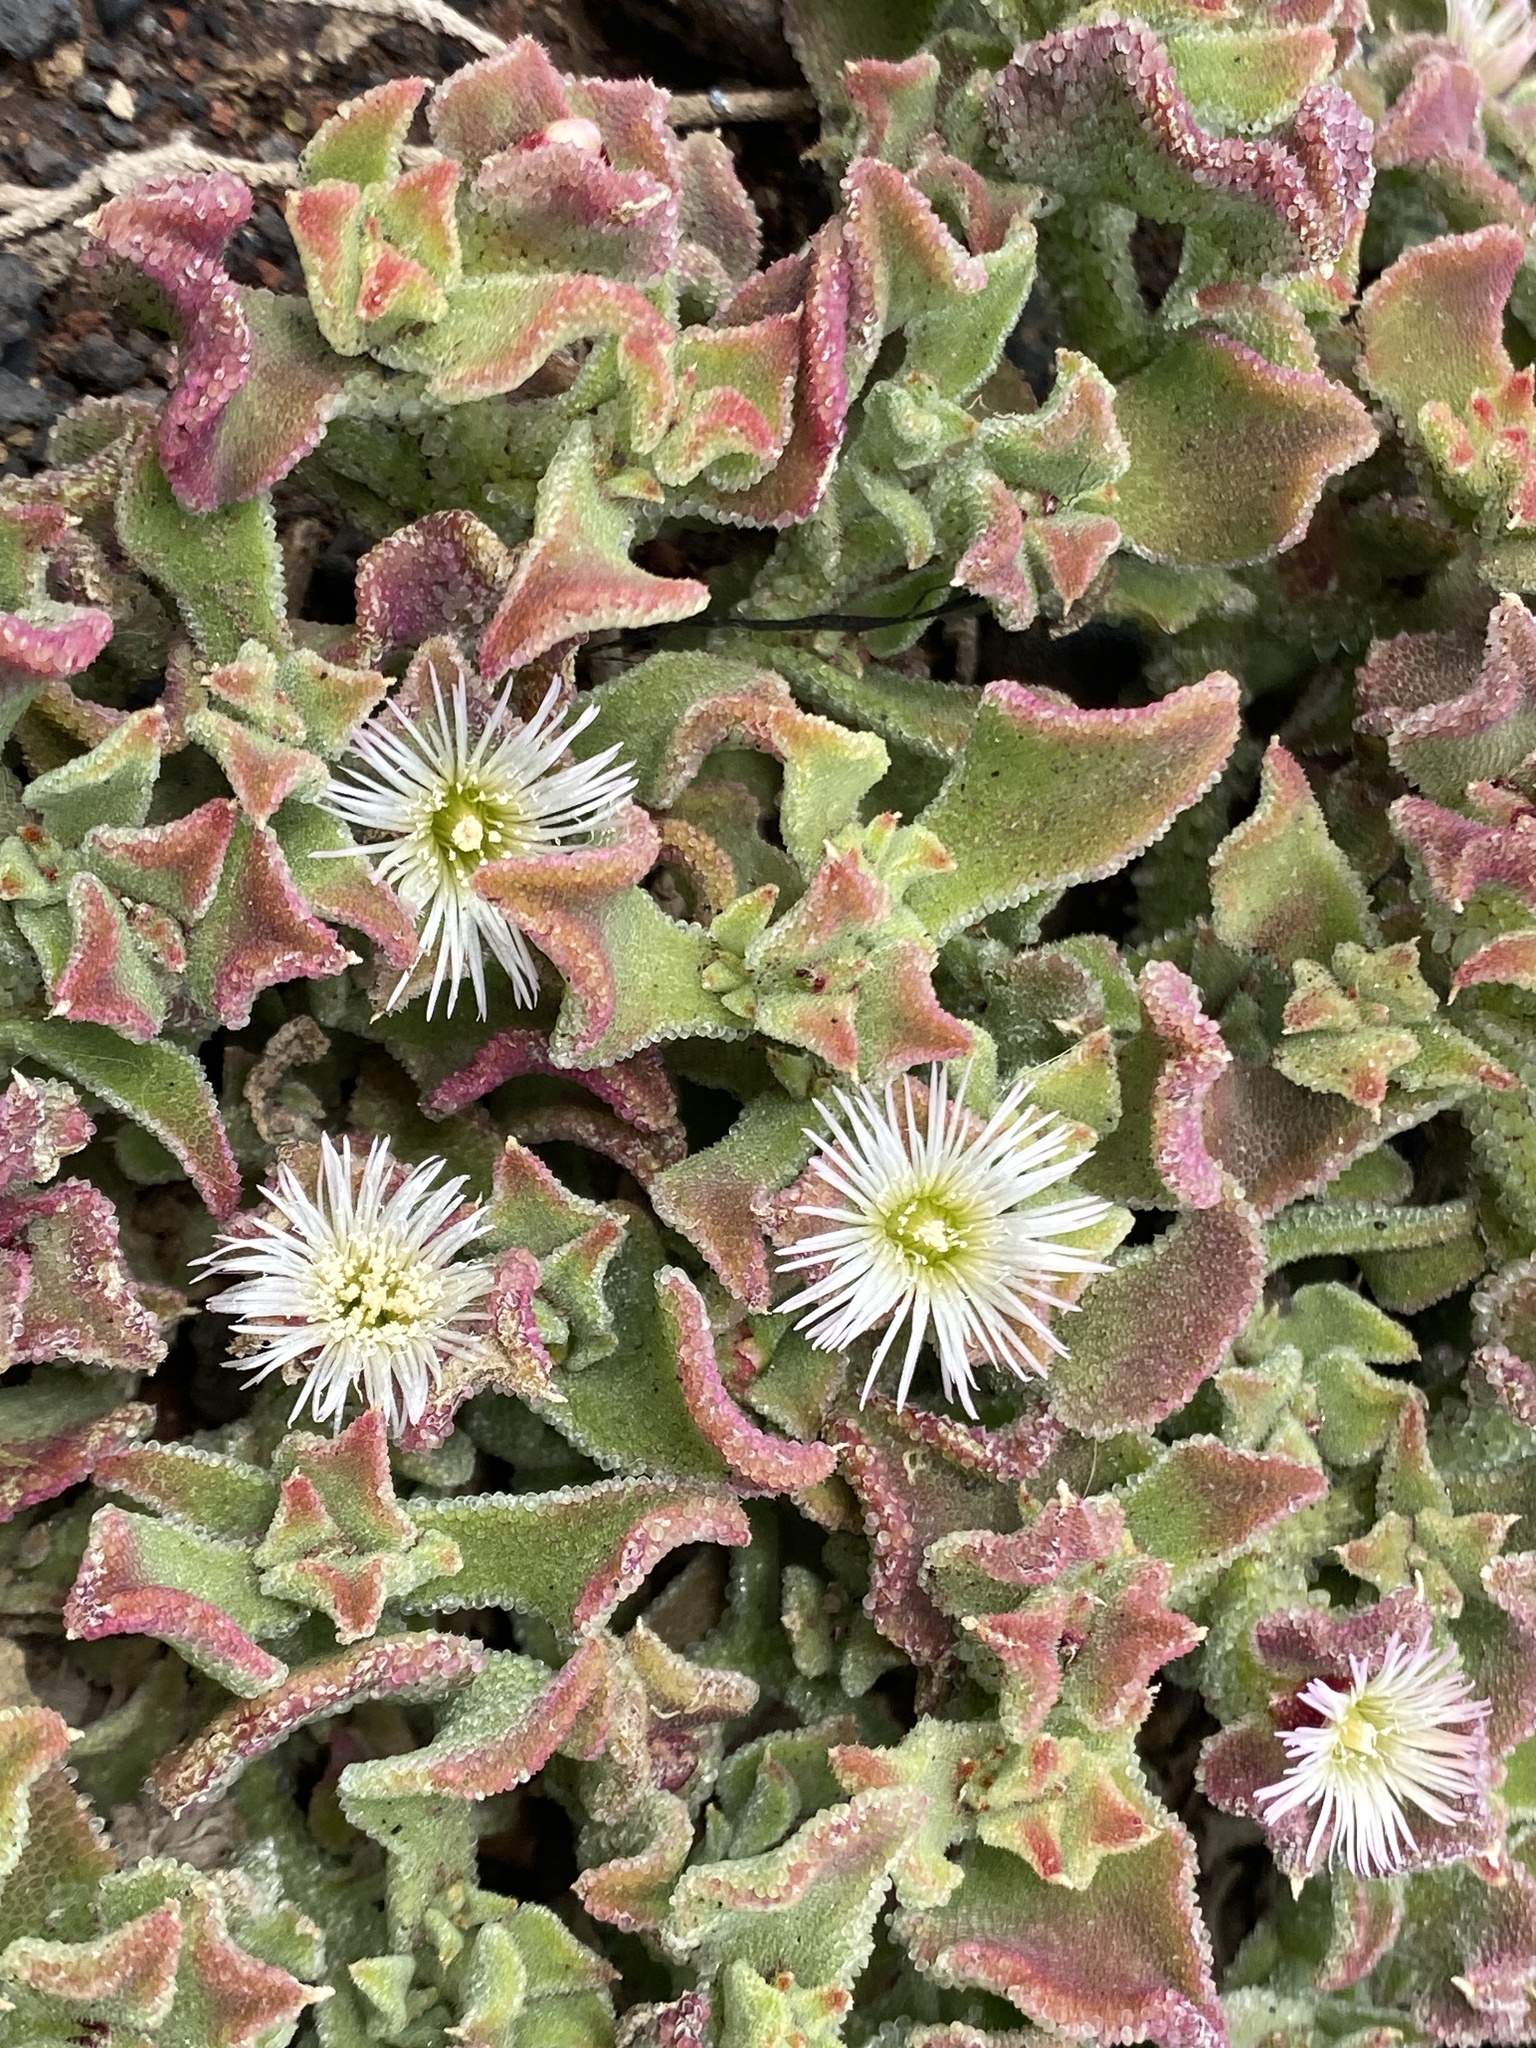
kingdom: Plantae
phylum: Tracheophyta
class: Magnoliopsida
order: Caryophyllales
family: Aizoaceae
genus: Mesembryanthemum
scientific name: Mesembryanthemum crystallinum
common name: Common iceplant
